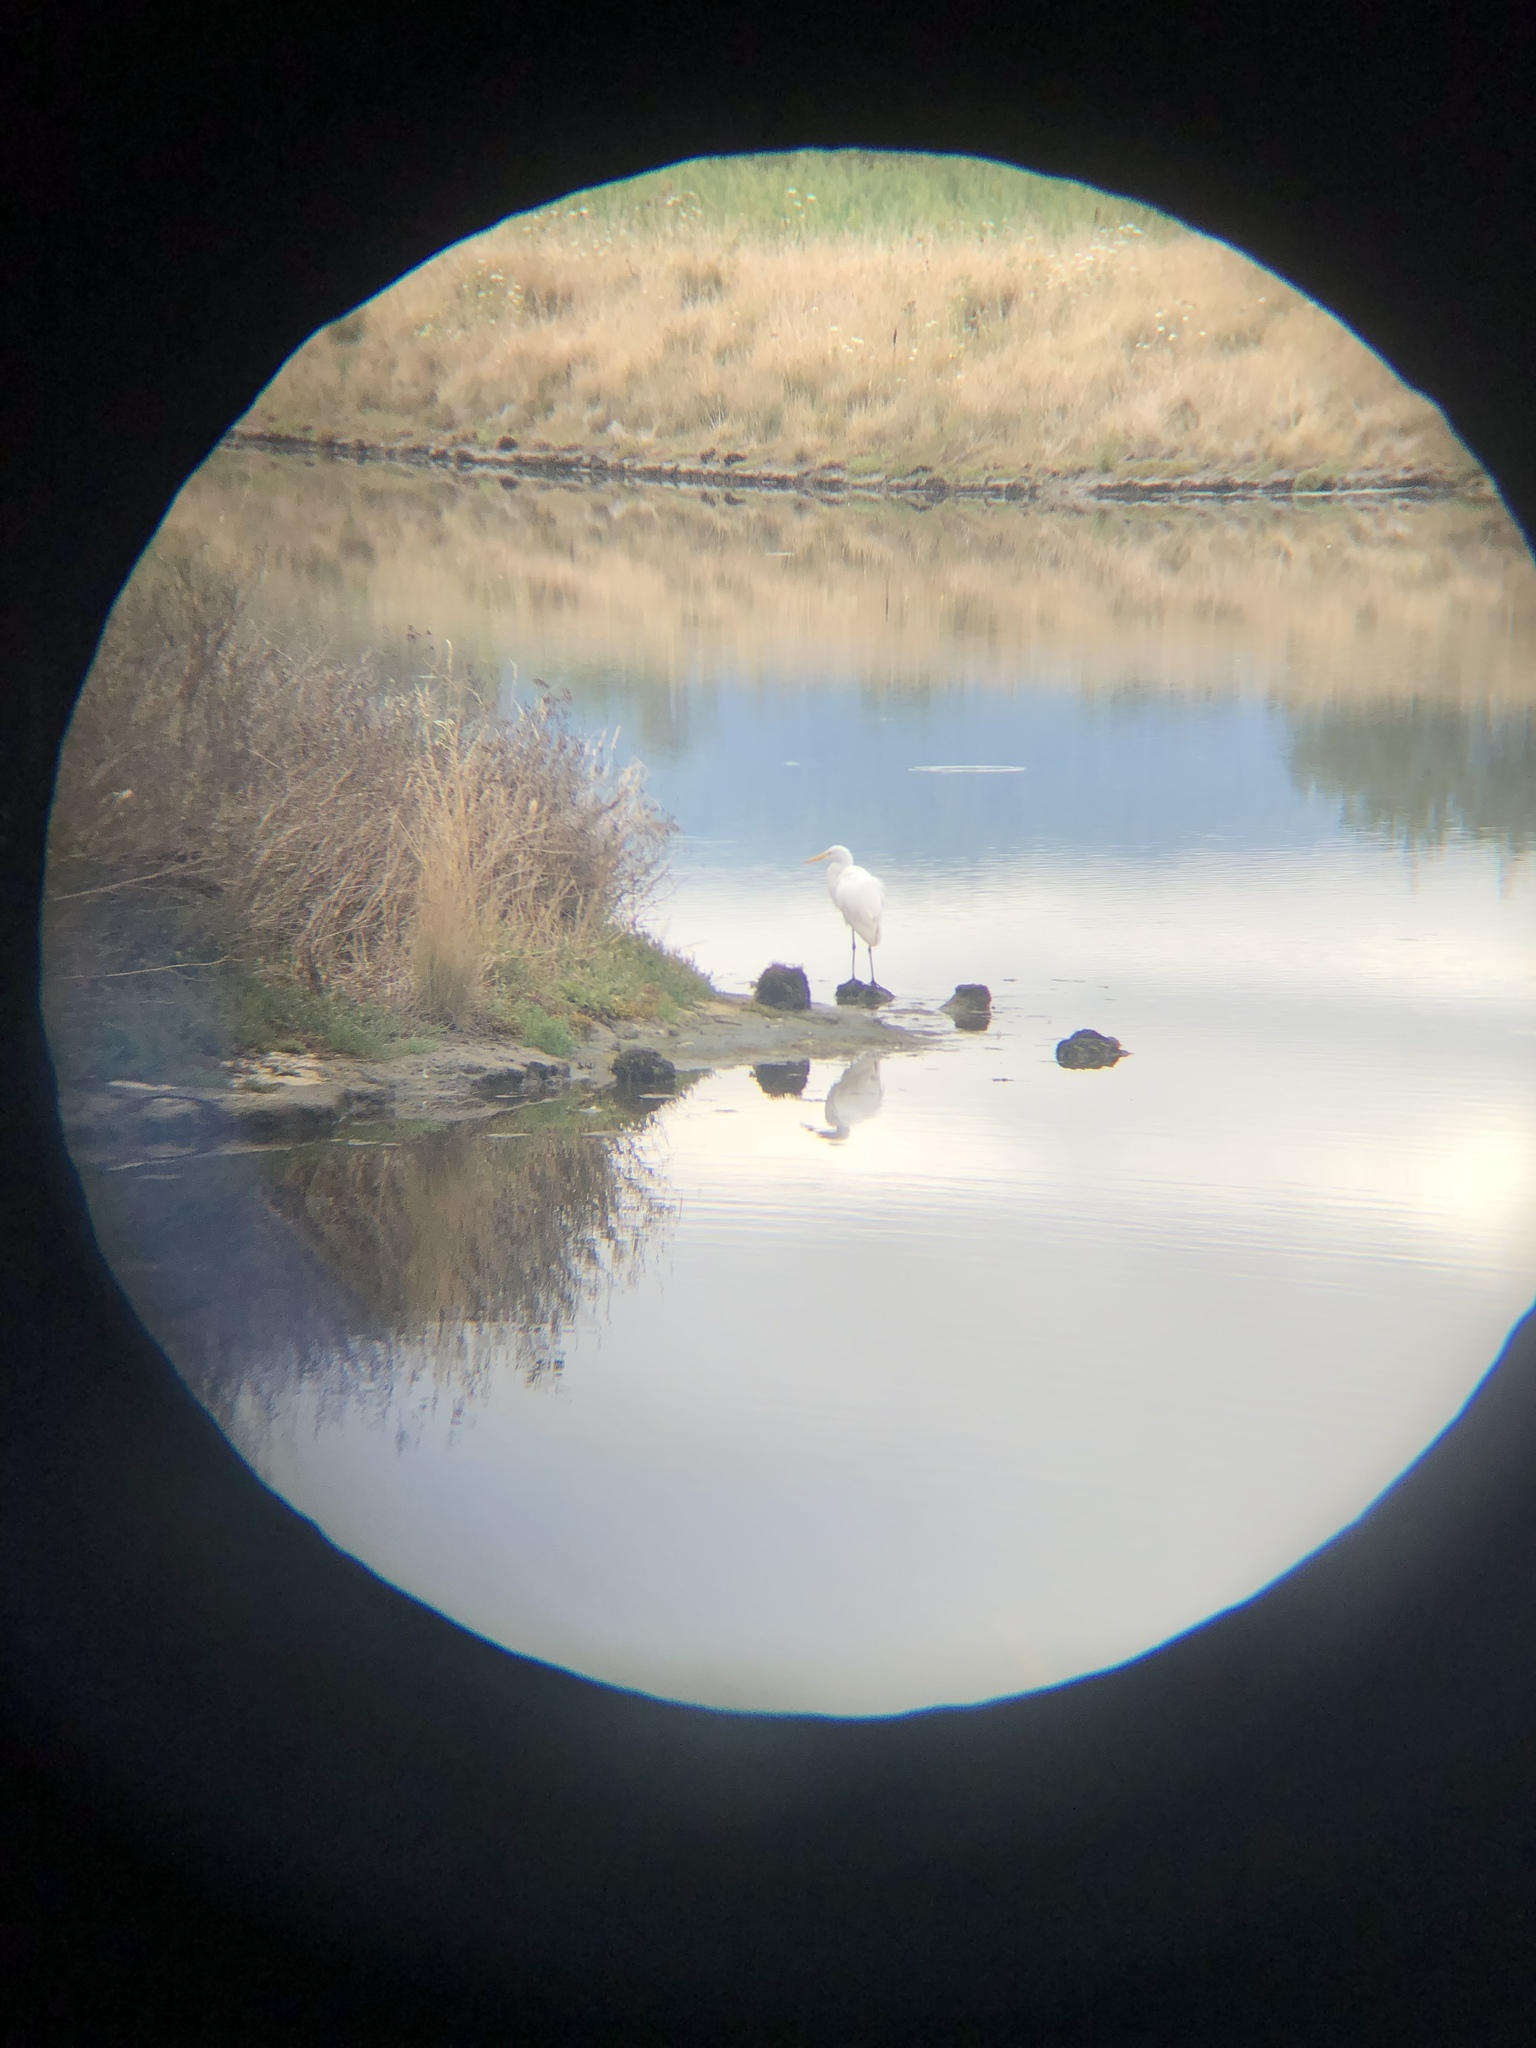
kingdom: Animalia
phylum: Chordata
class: Aves
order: Pelecaniformes
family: Ardeidae
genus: Ardea
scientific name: Ardea alba
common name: Great egret
